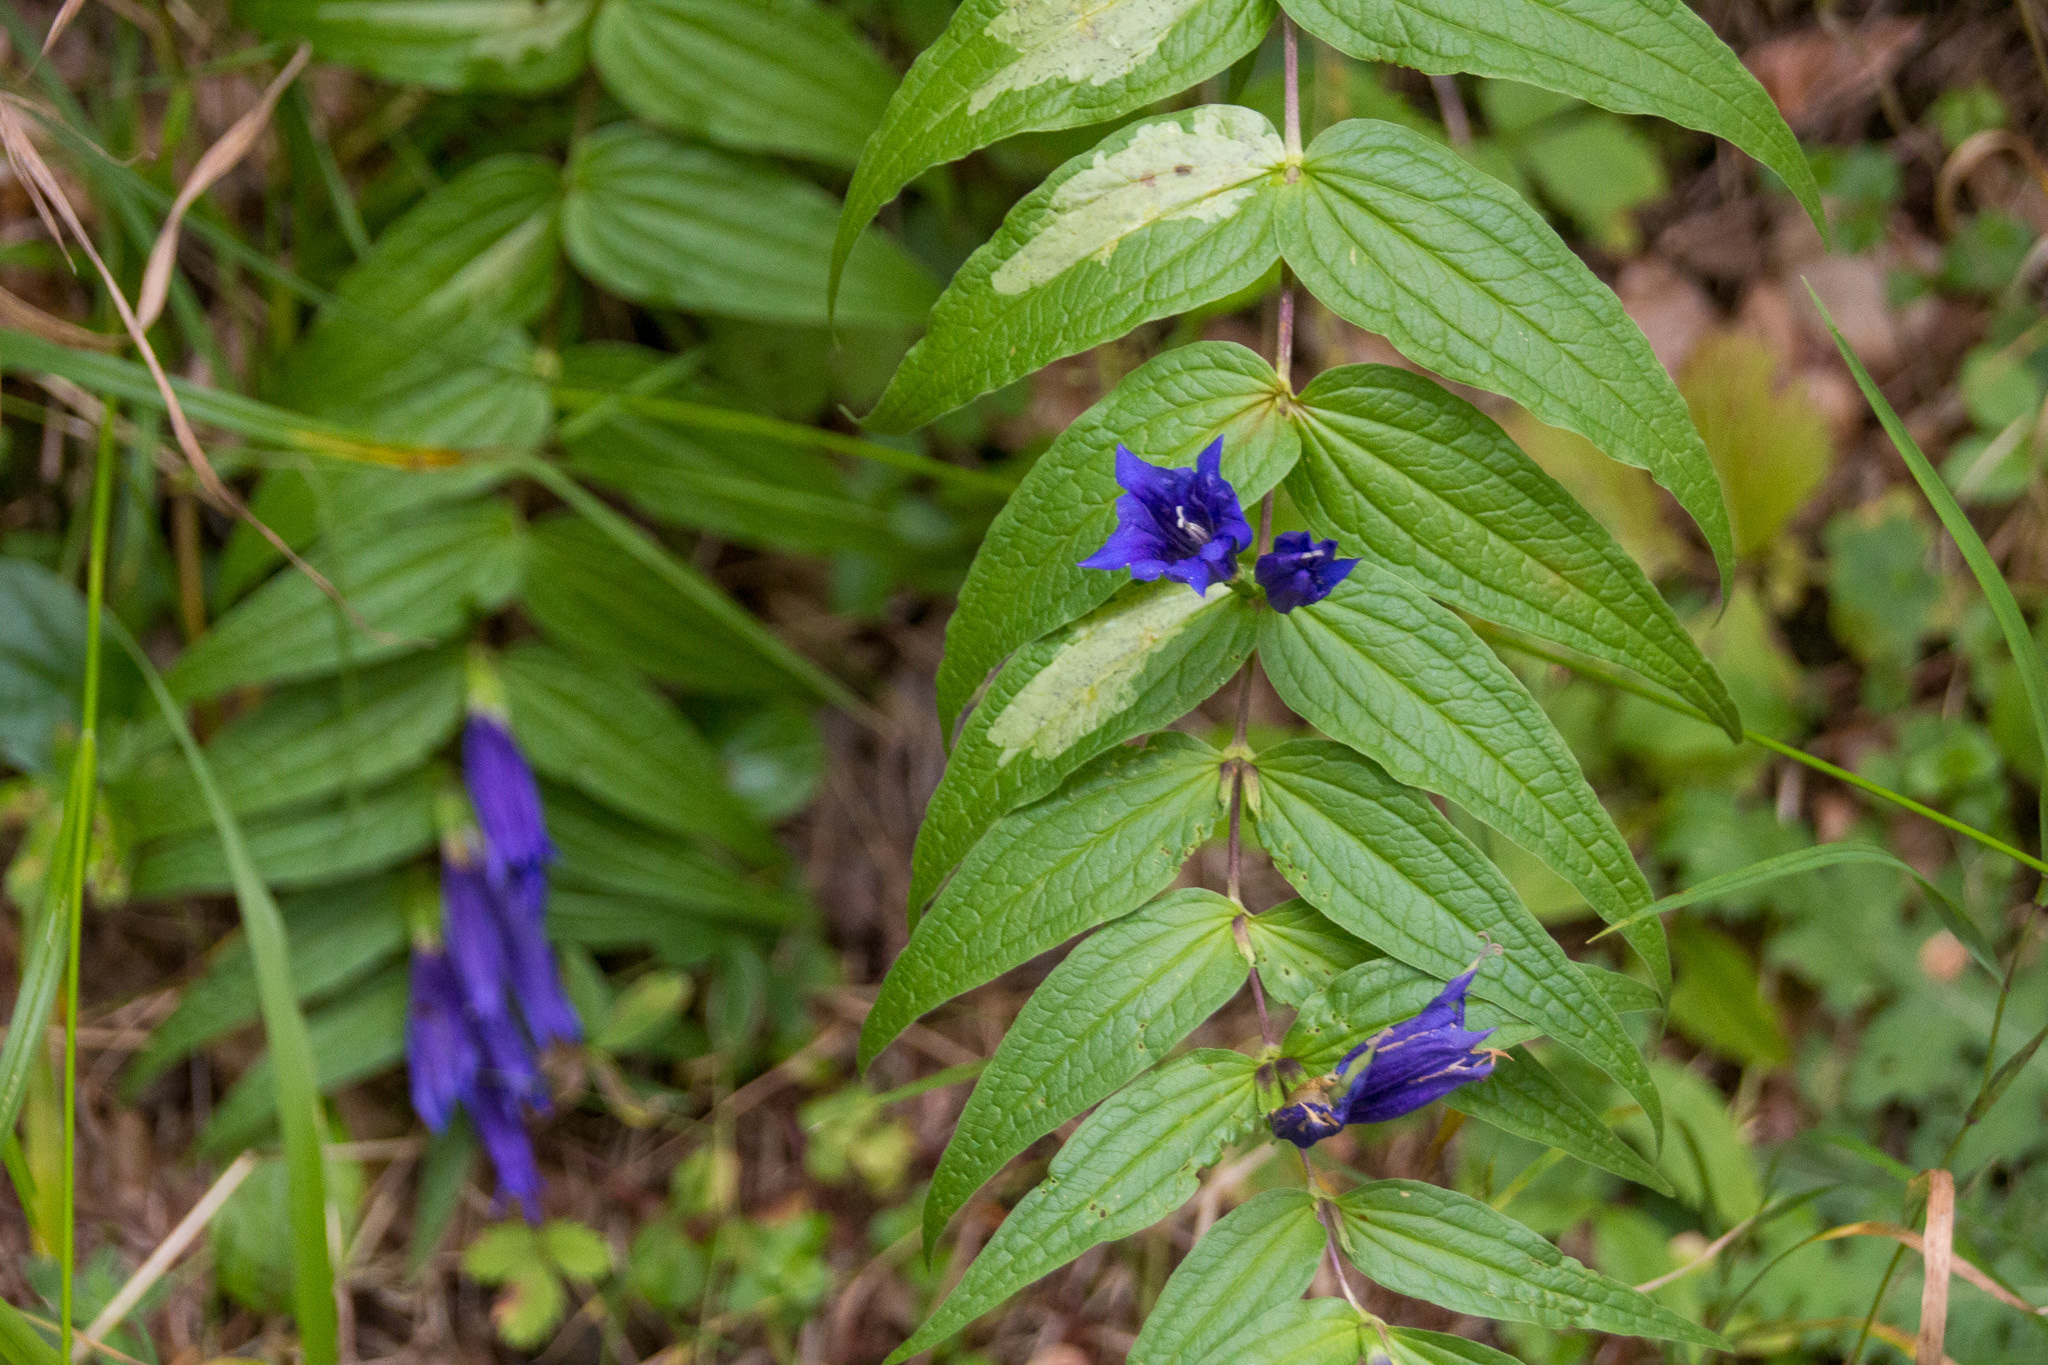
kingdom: Plantae
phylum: Tracheophyta
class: Magnoliopsida
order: Gentianales
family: Gentianaceae
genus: Gentiana
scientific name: Gentiana asclepiadea
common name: Willow gentian
